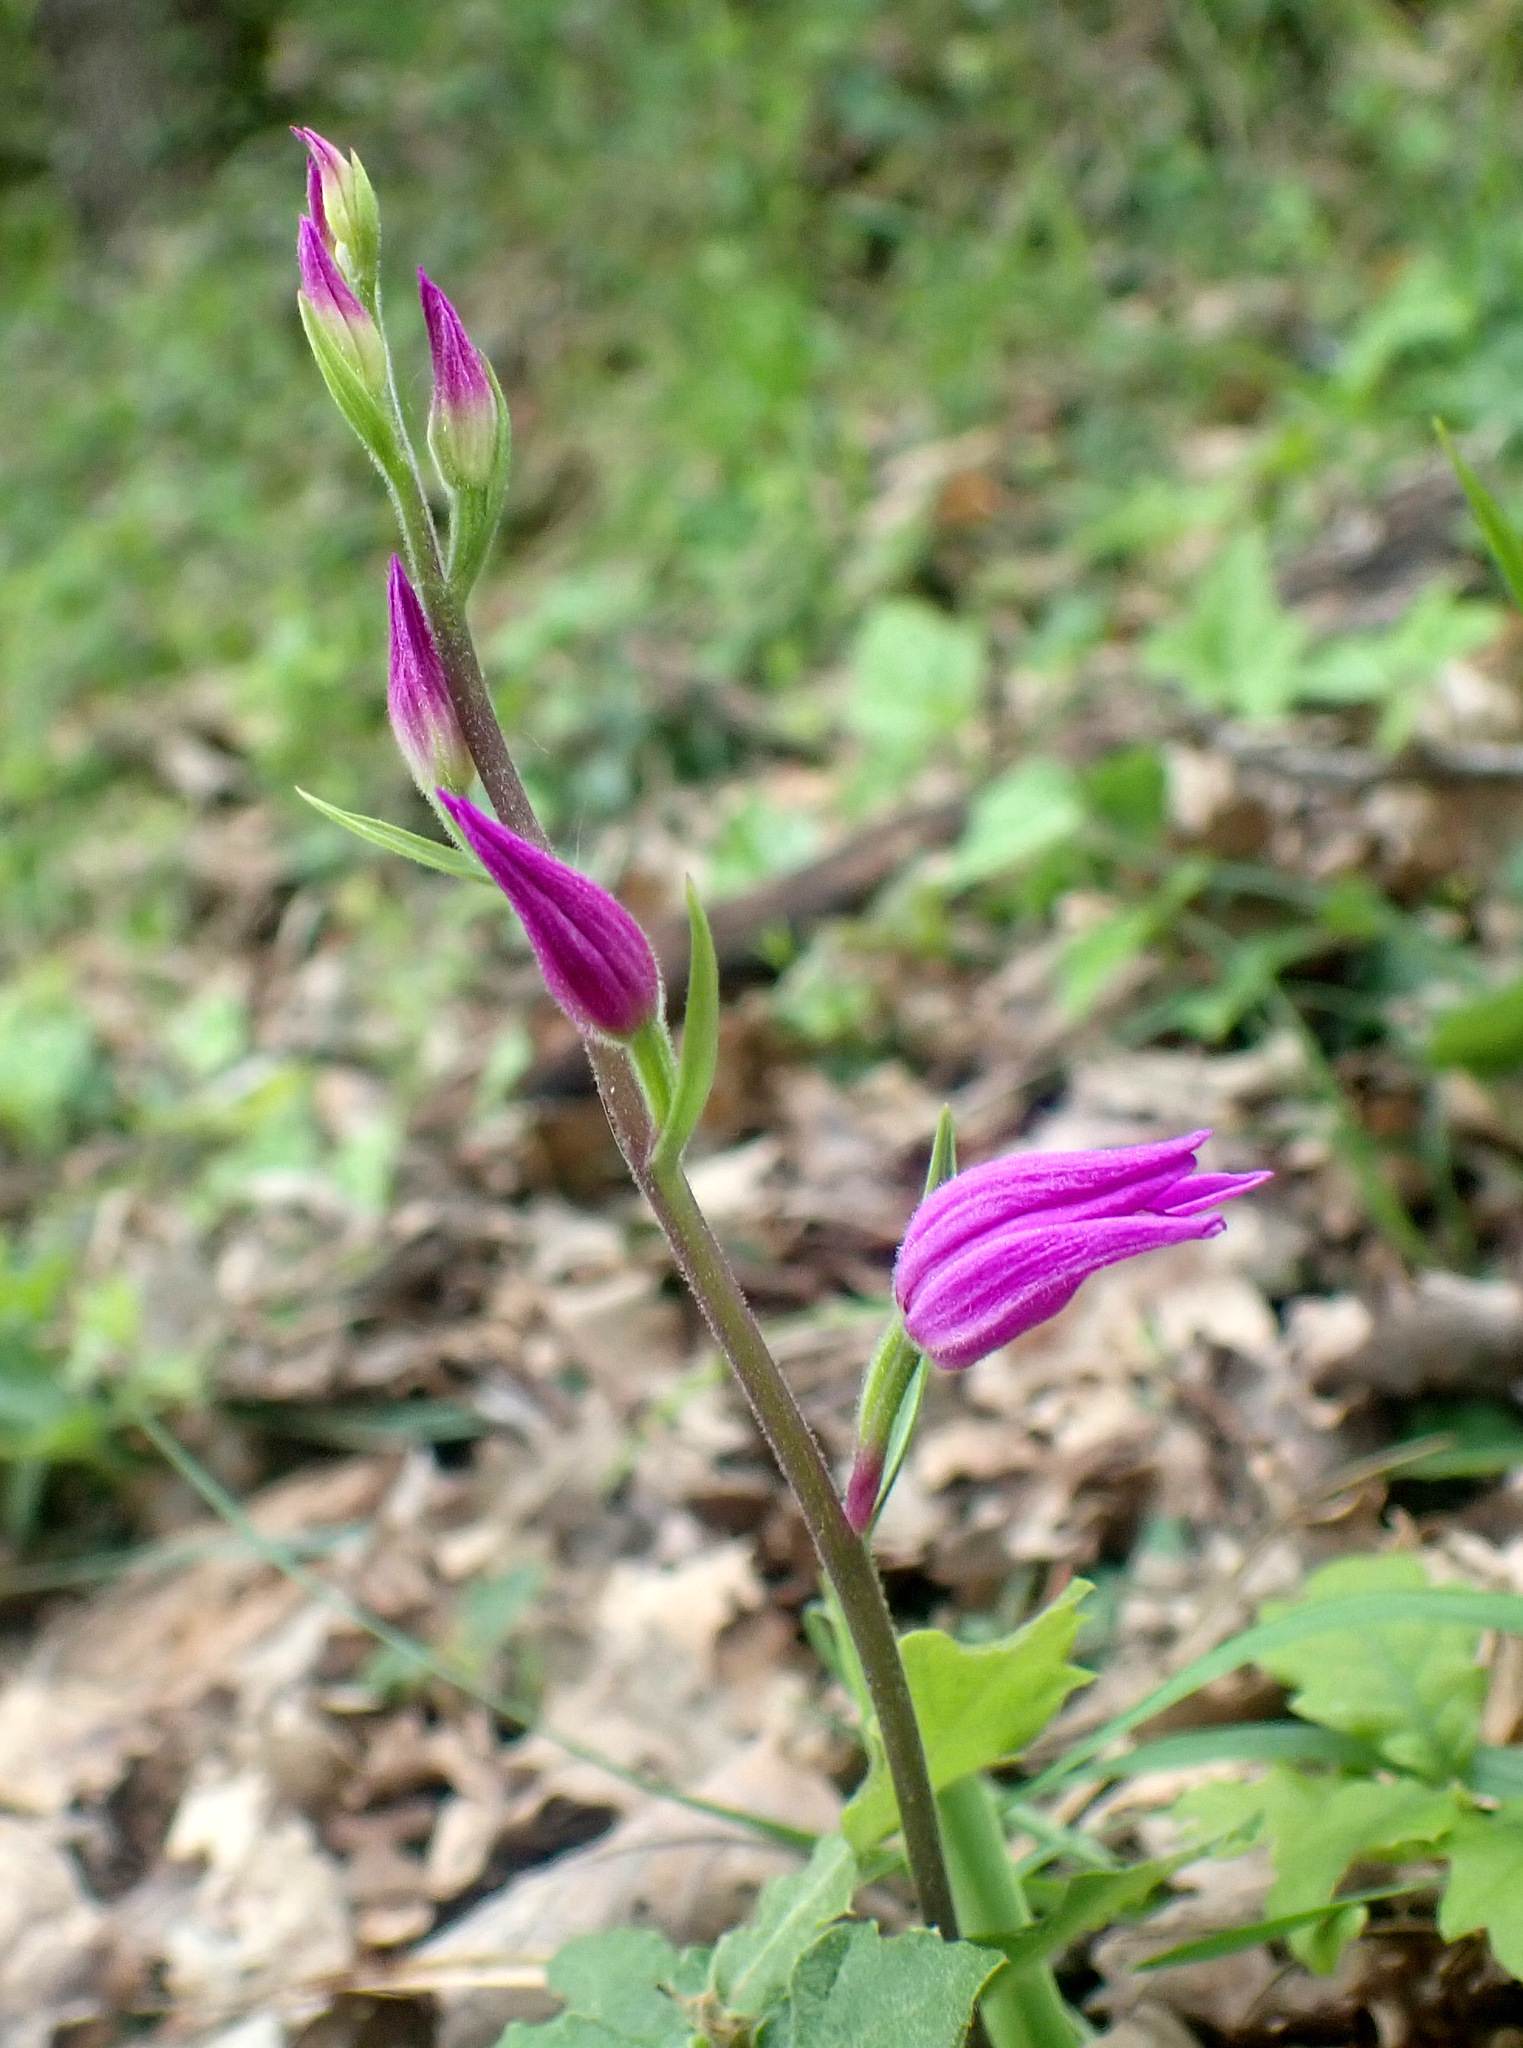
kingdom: Plantae
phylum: Tracheophyta
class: Liliopsida
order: Asparagales
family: Orchidaceae
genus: Cephalanthera
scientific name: Cephalanthera rubra
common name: Red helleborine
